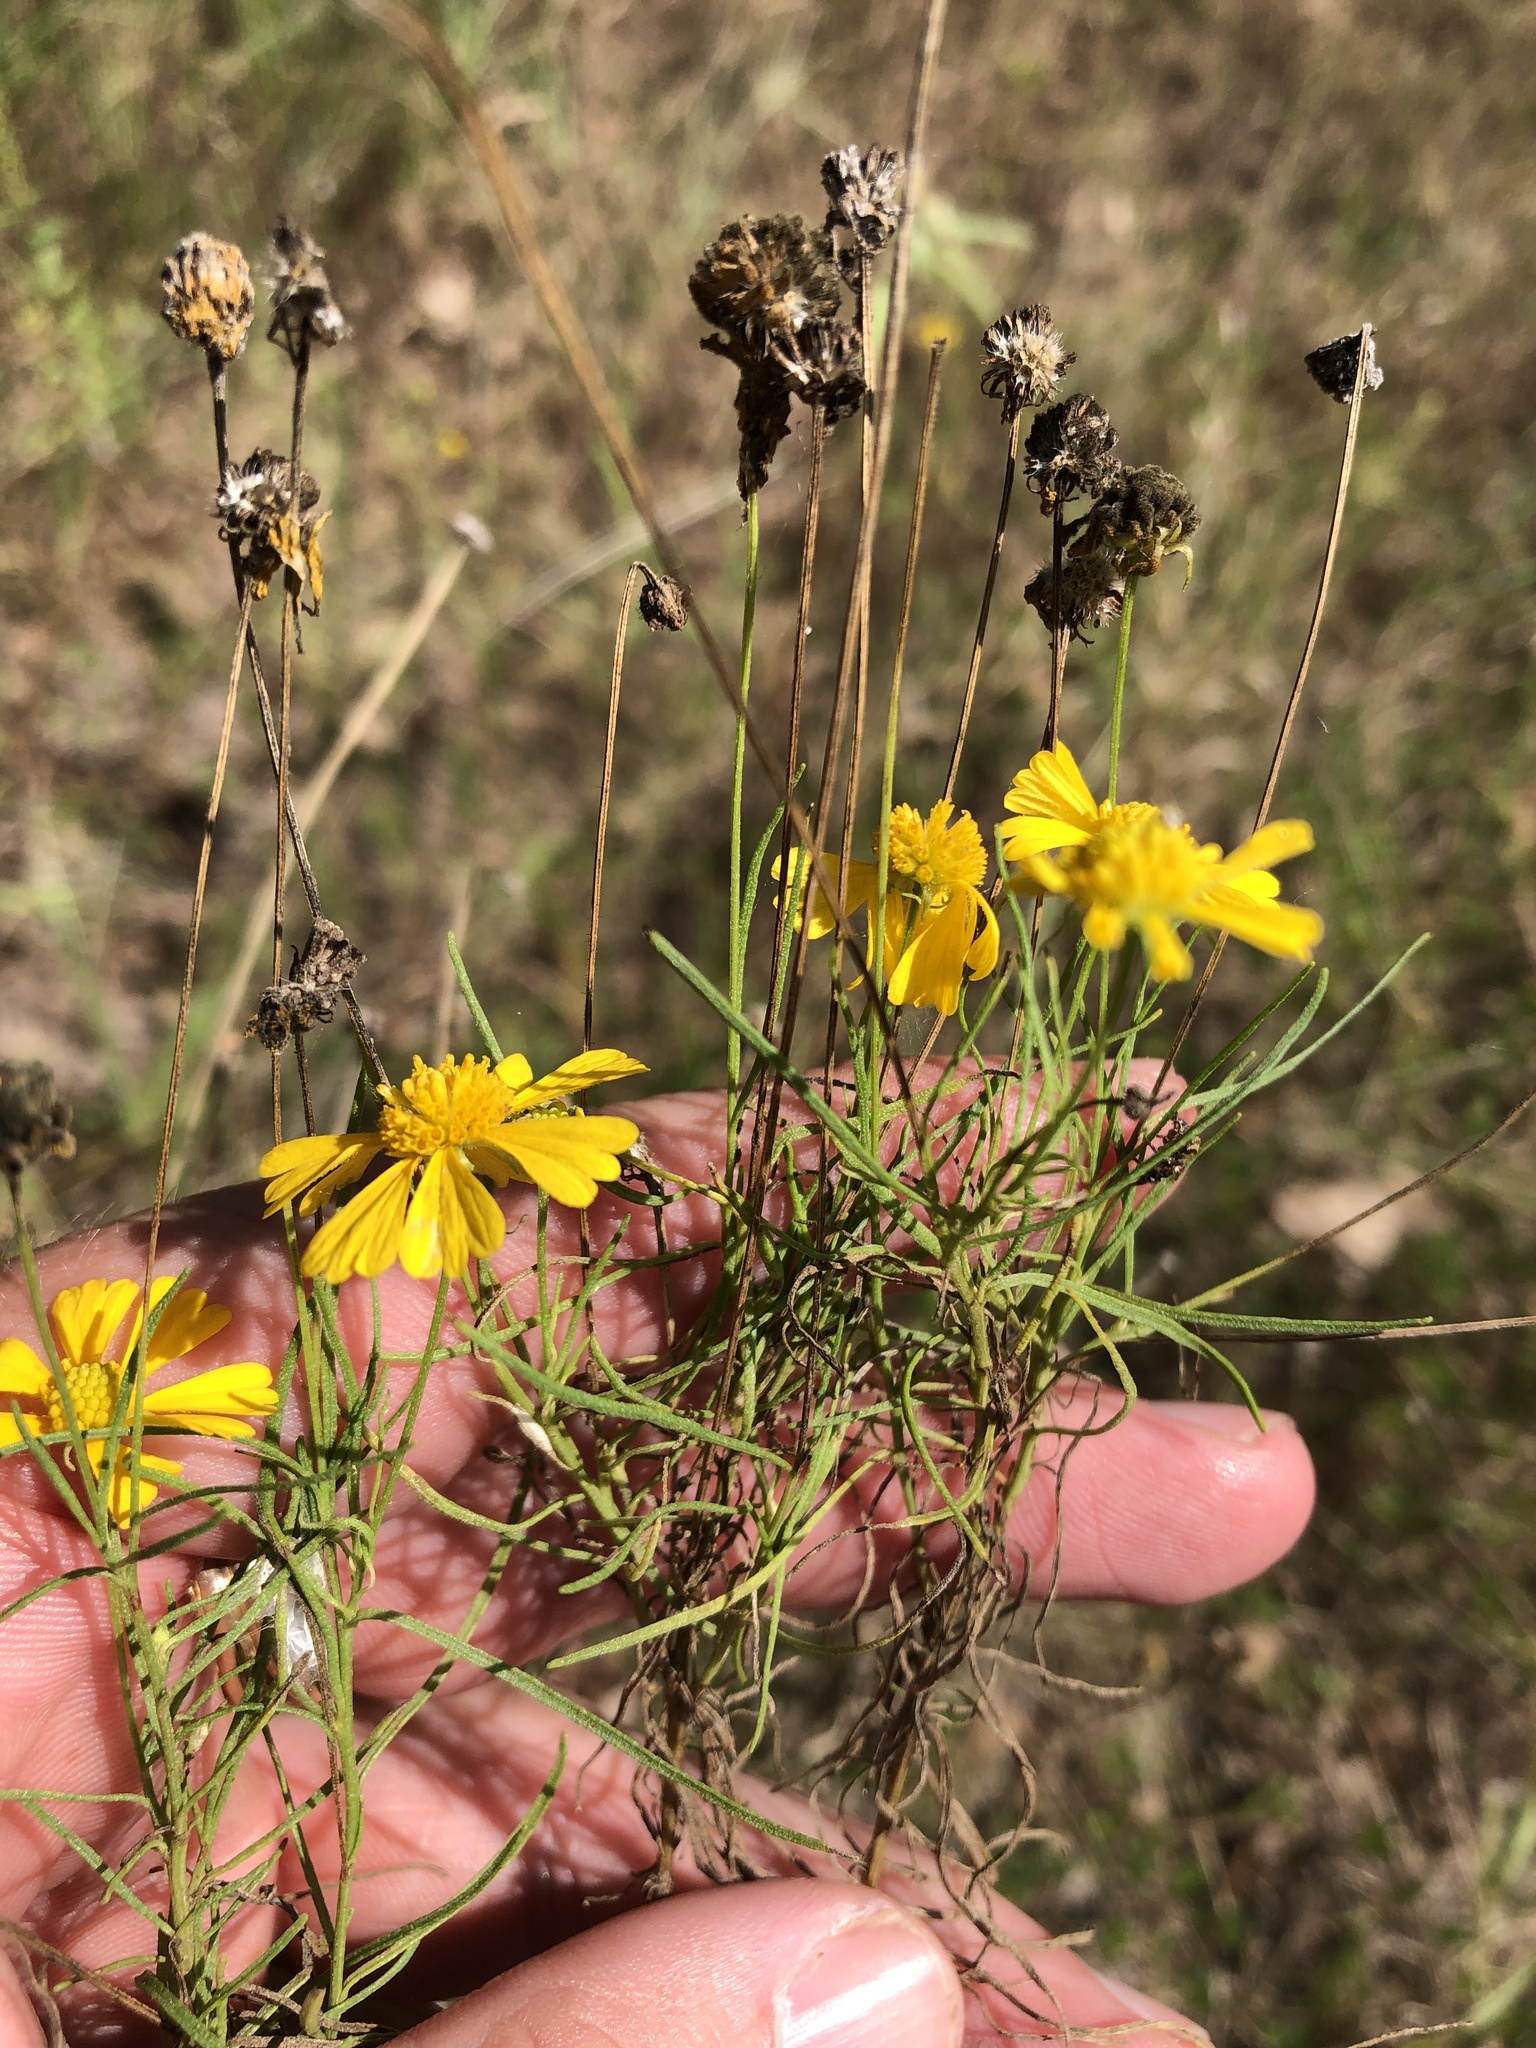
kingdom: Plantae
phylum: Tracheophyta
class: Magnoliopsida
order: Asterales
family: Asteraceae
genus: Helenium
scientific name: Helenium amarum
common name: Bitter sneezeweed
